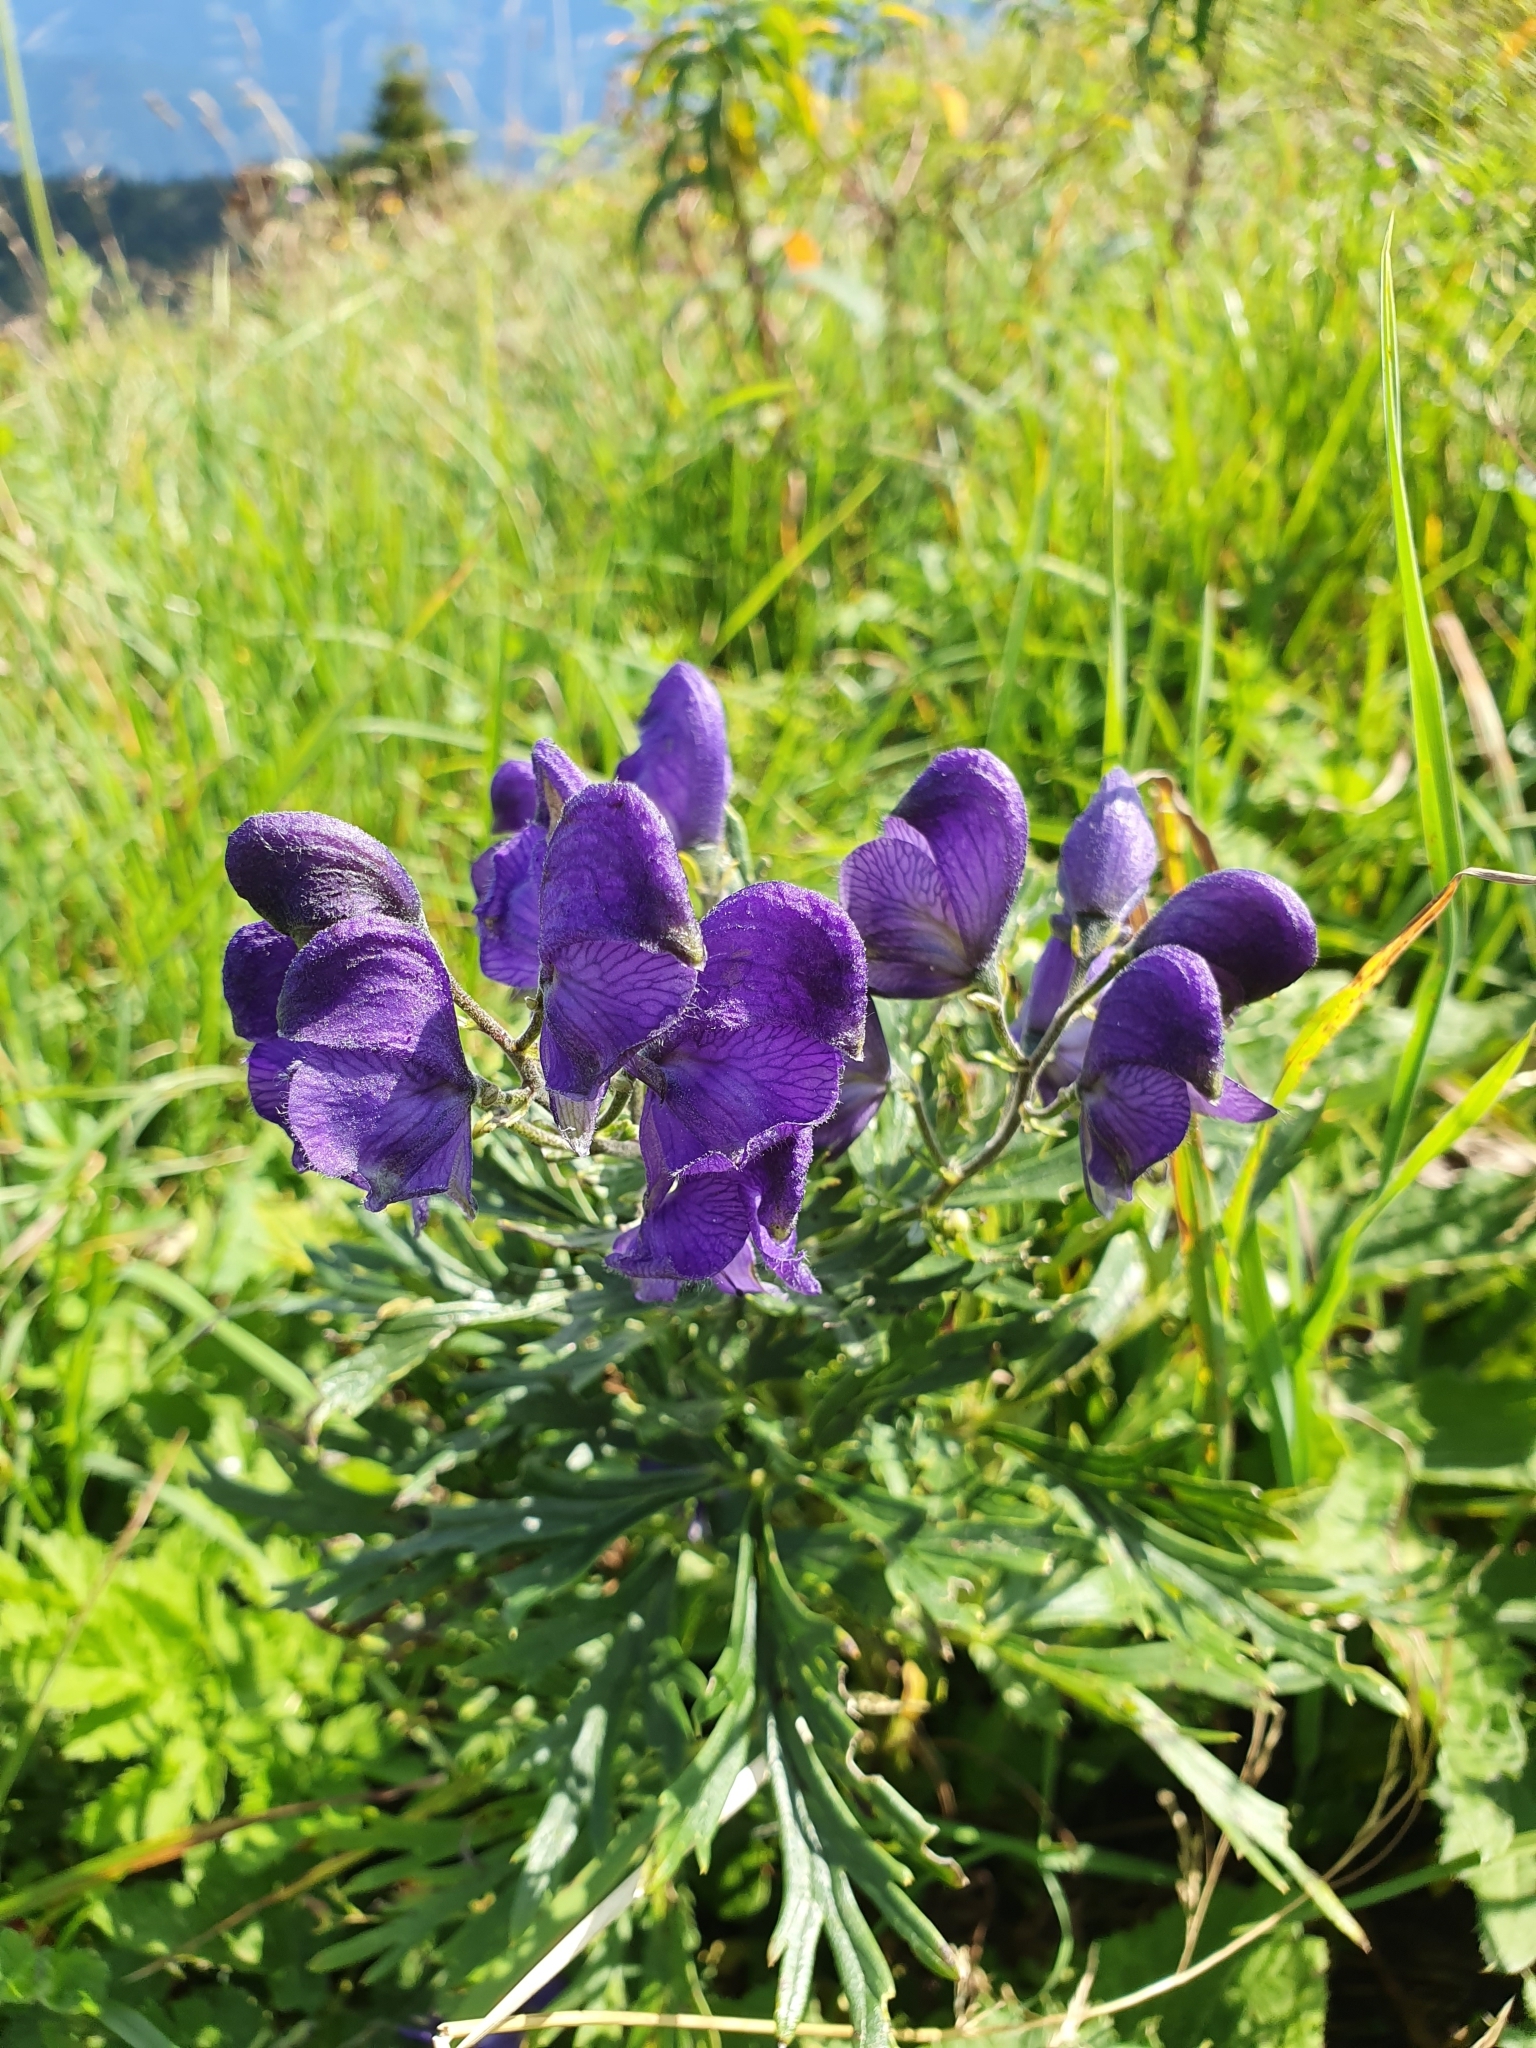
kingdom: Plantae
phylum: Tracheophyta
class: Magnoliopsida
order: Ranunculales
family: Ranunculaceae
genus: Aconitum
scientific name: Aconitum napellus
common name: Garden monkshood
